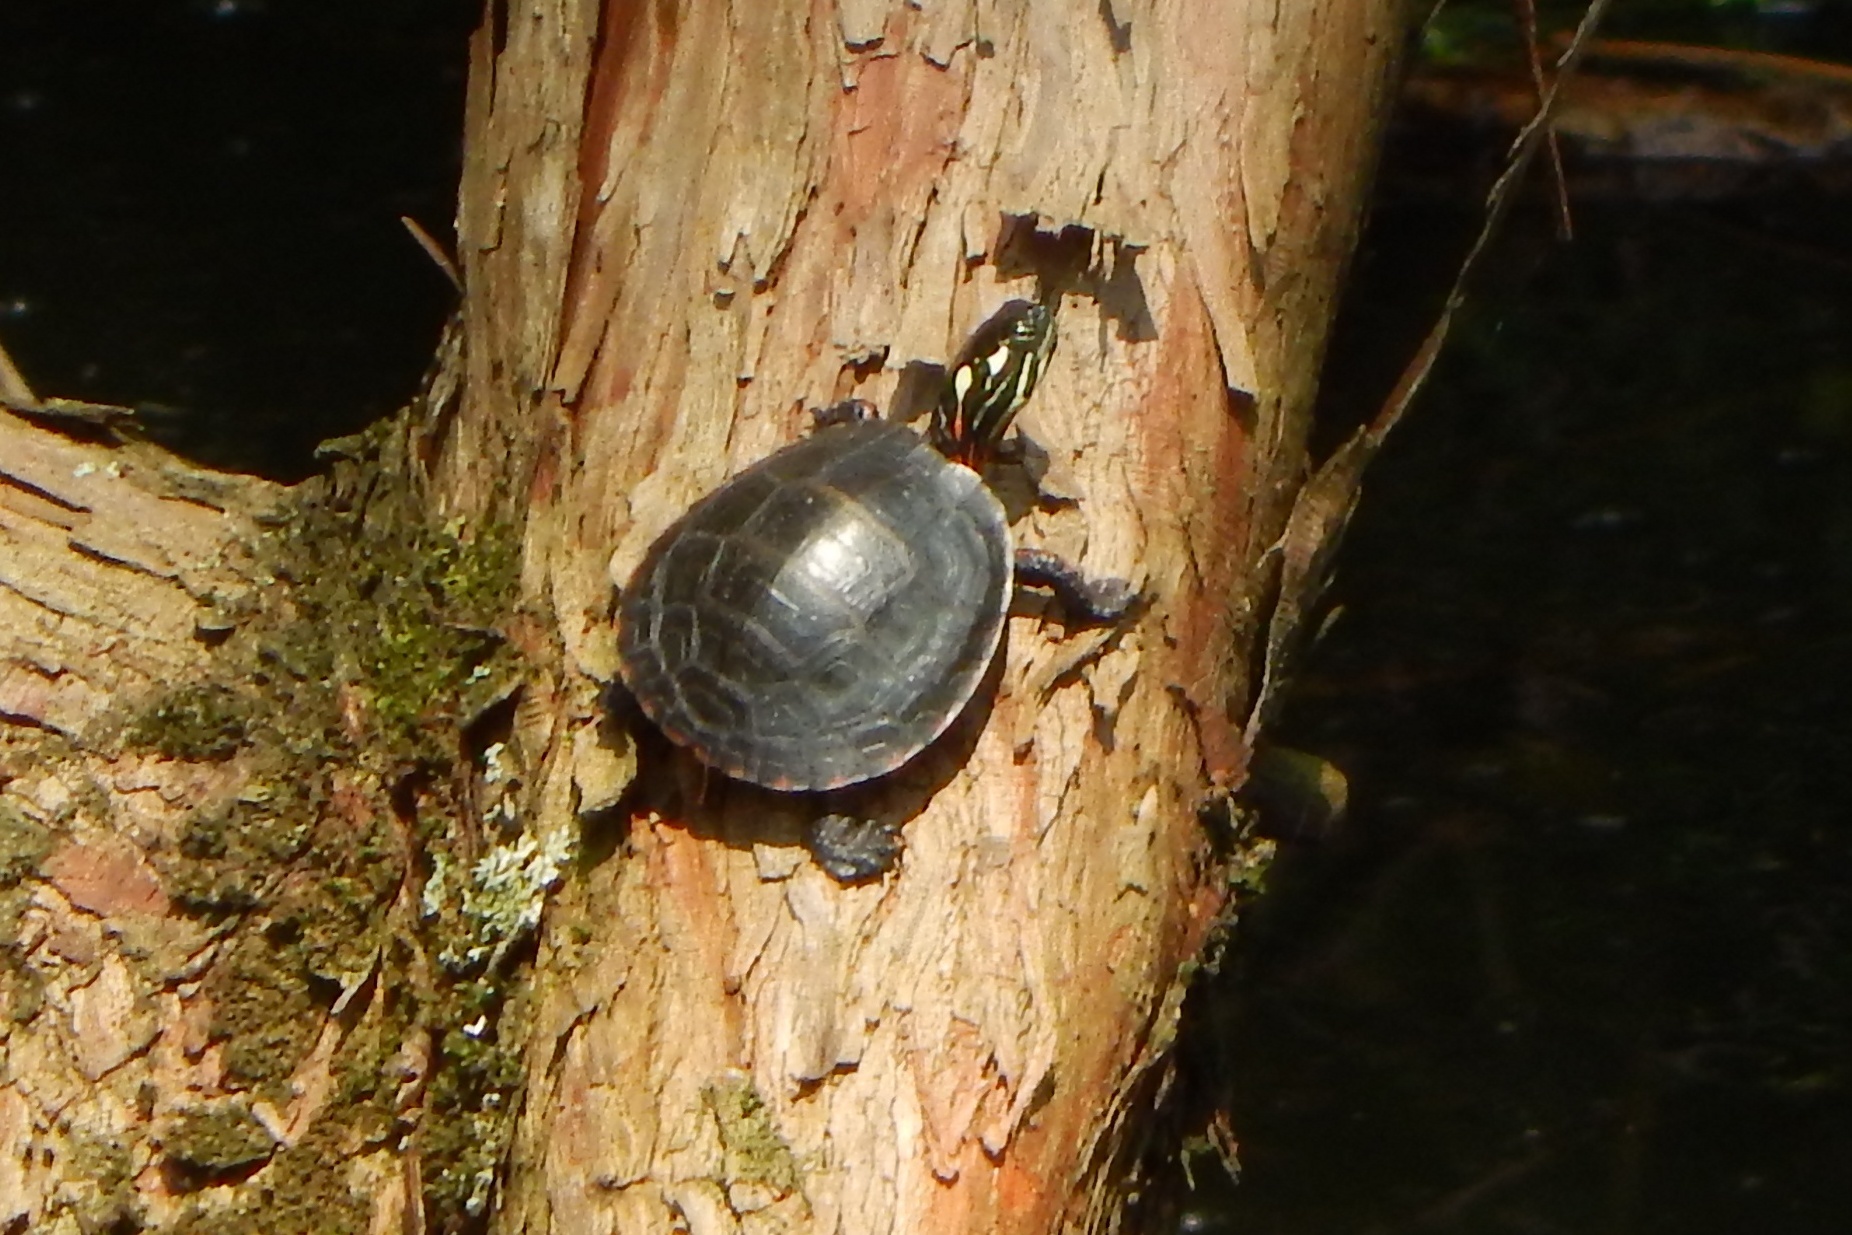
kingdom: Animalia
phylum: Chordata
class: Testudines
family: Emydidae
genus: Chrysemys
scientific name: Chrysemys picta
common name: Painted turtle
